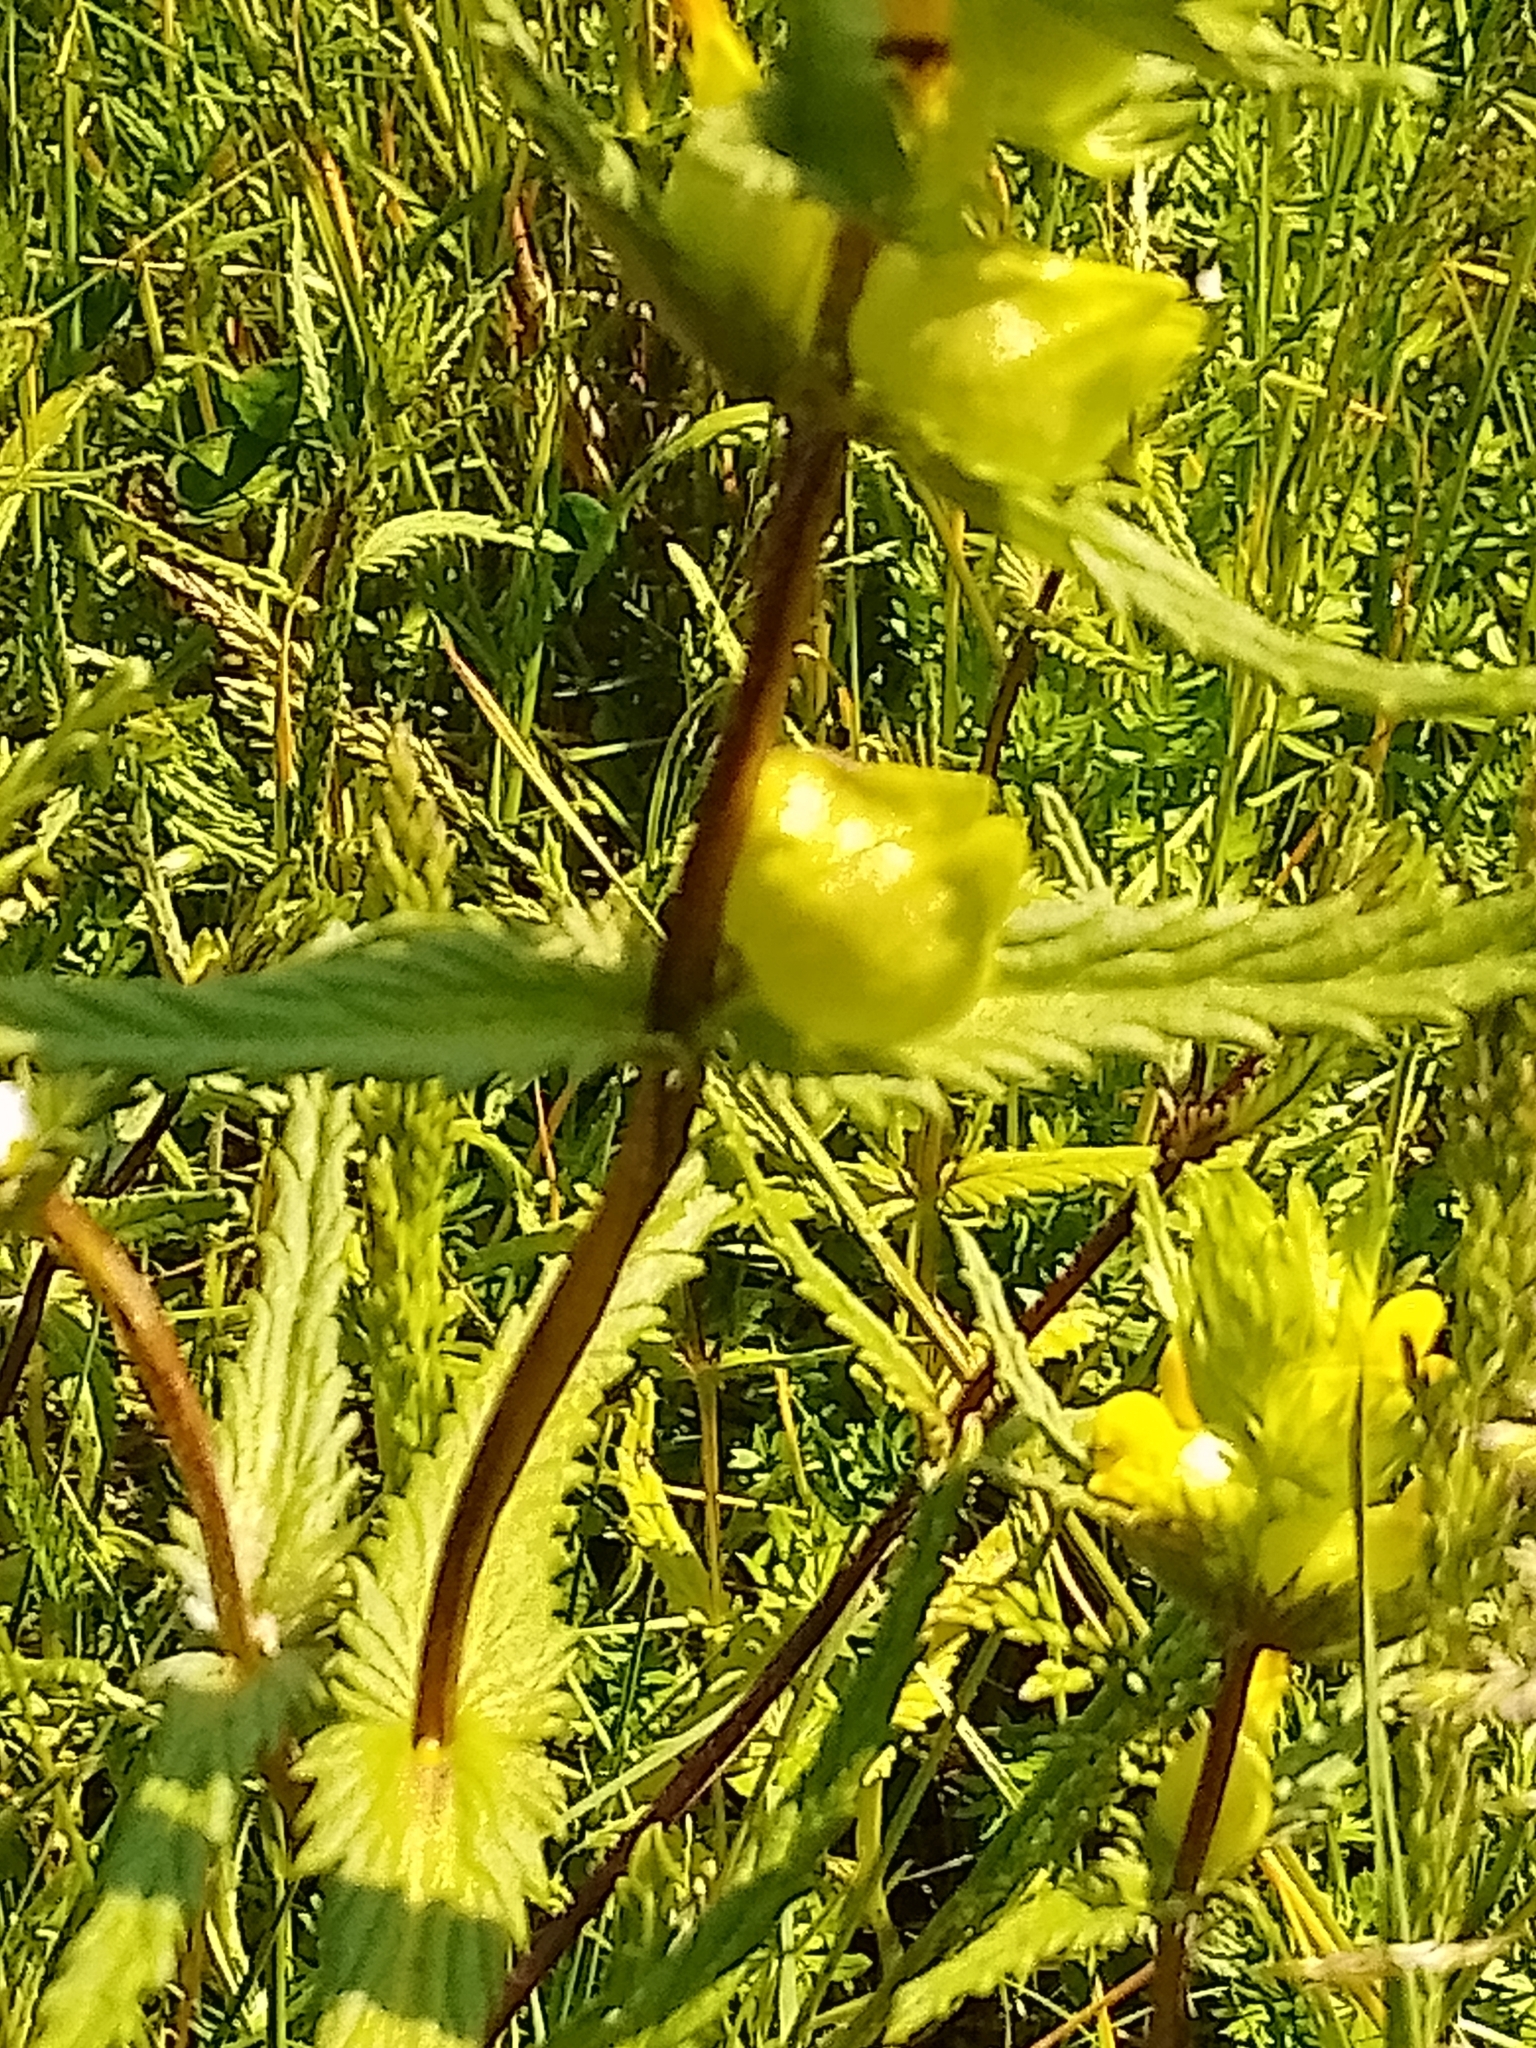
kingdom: Plantae
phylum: Tracheophyta
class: Magnoliopsida
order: Lamiales
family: Orobanchaceae
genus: Rhinanthus
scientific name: Rhinanthus minor
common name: Yellow-rattle
